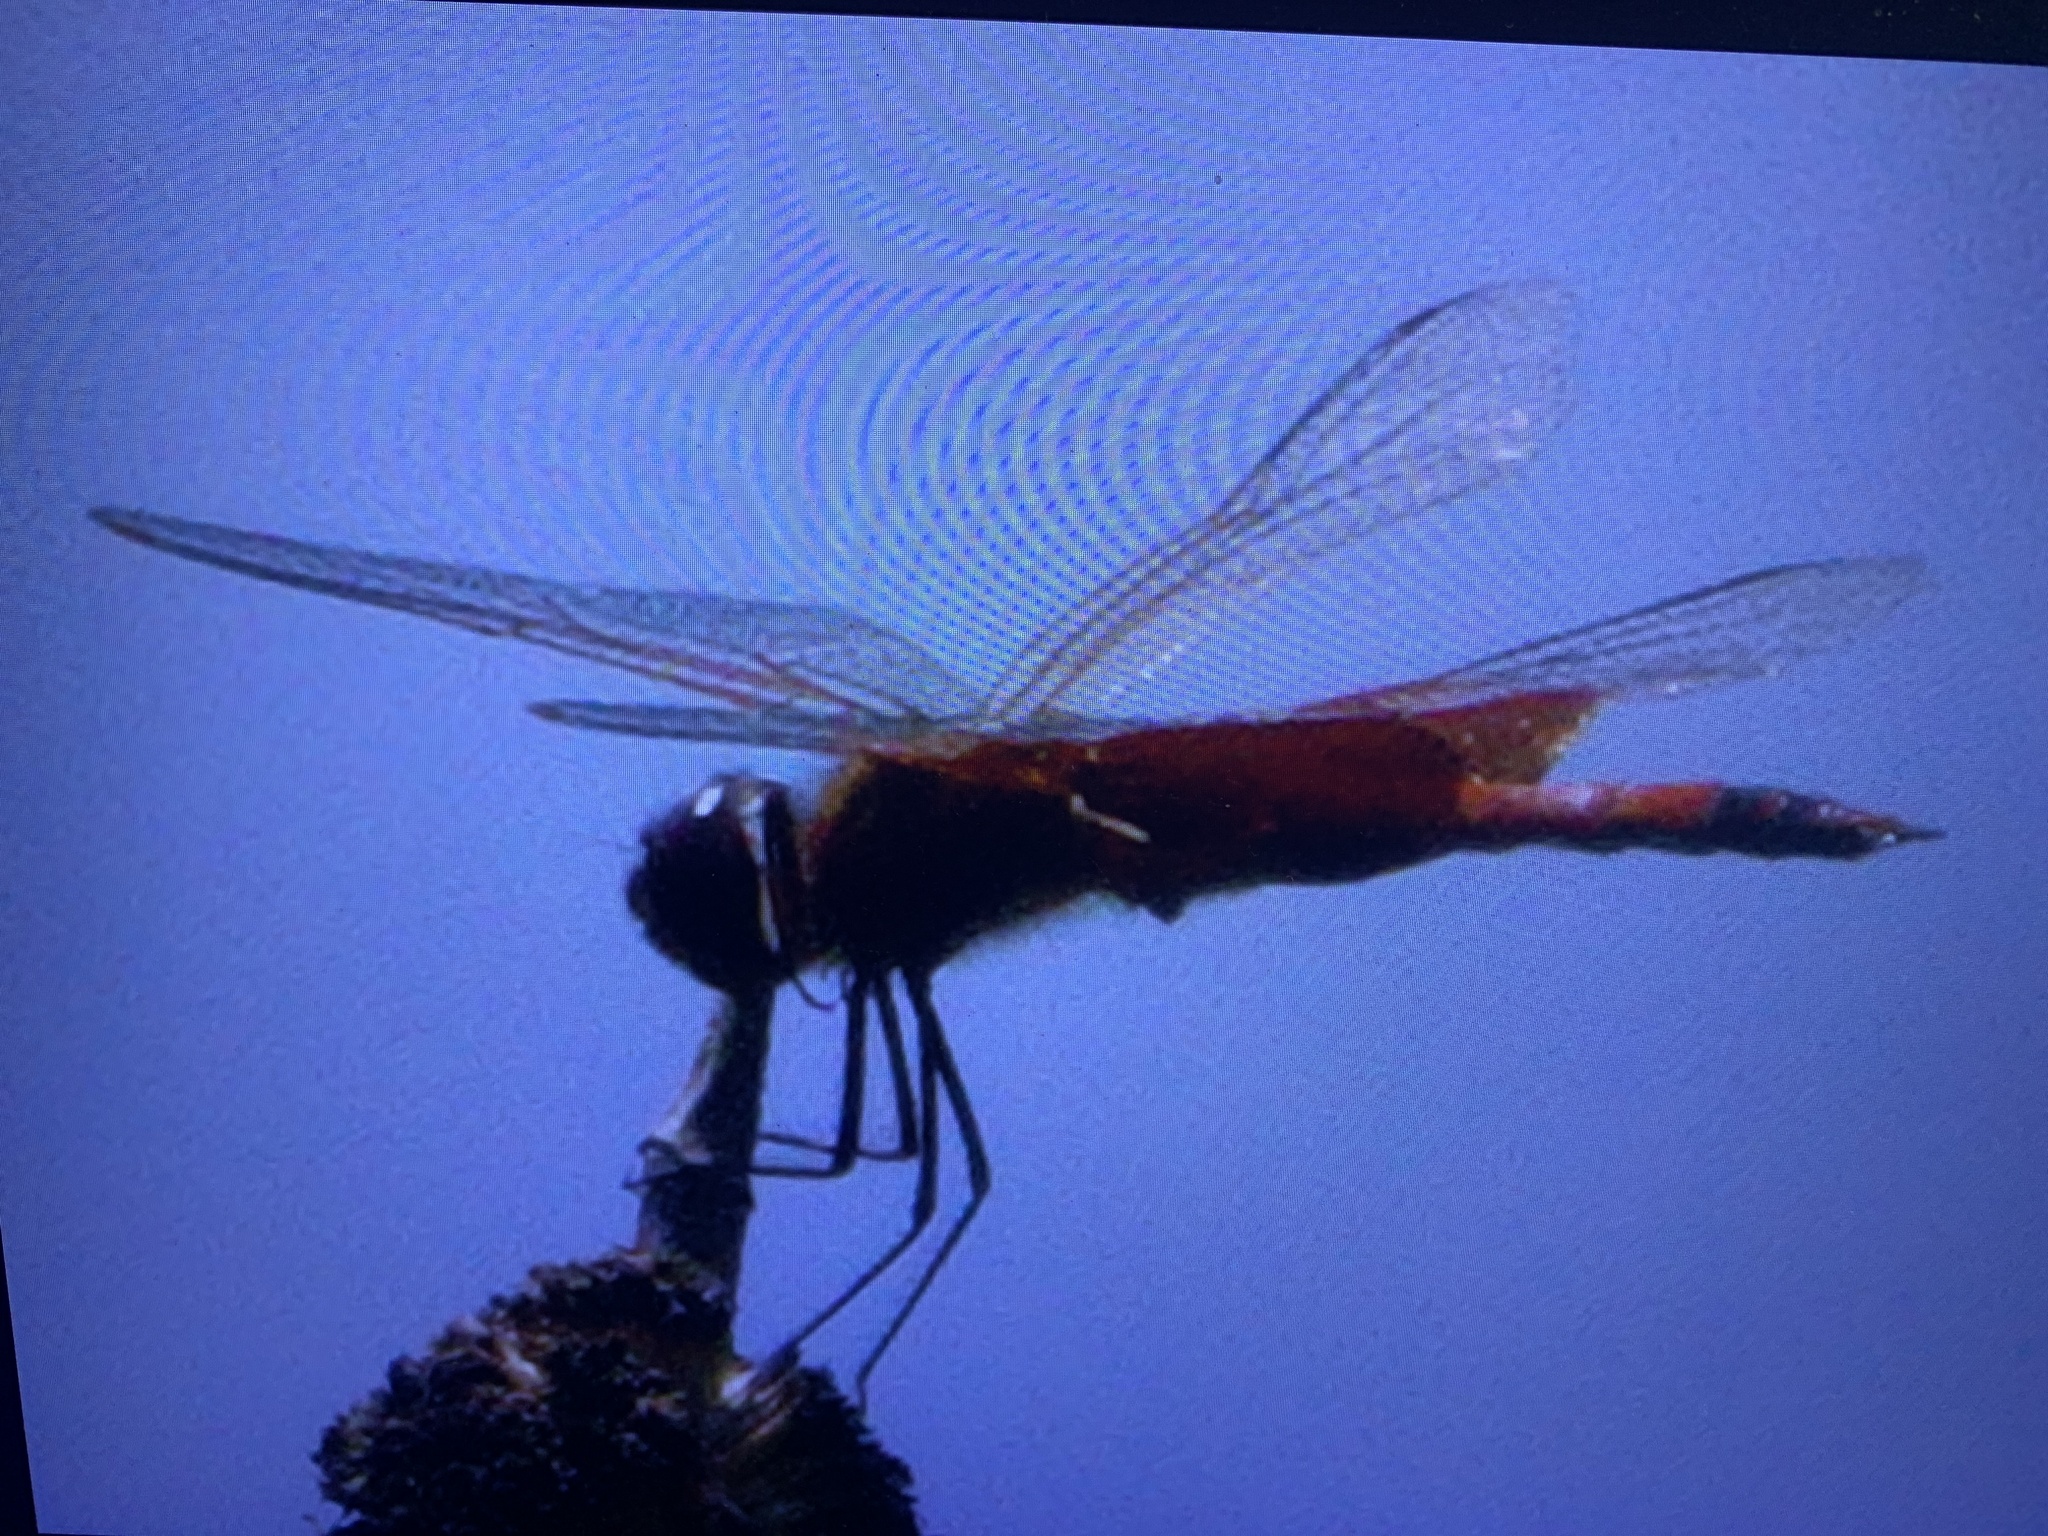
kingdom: Animalia
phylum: Arthropoda
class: Insecta
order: Odonata
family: Libellulidae
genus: Tramea
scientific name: Tramea carolina
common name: Carolina saddlebags
